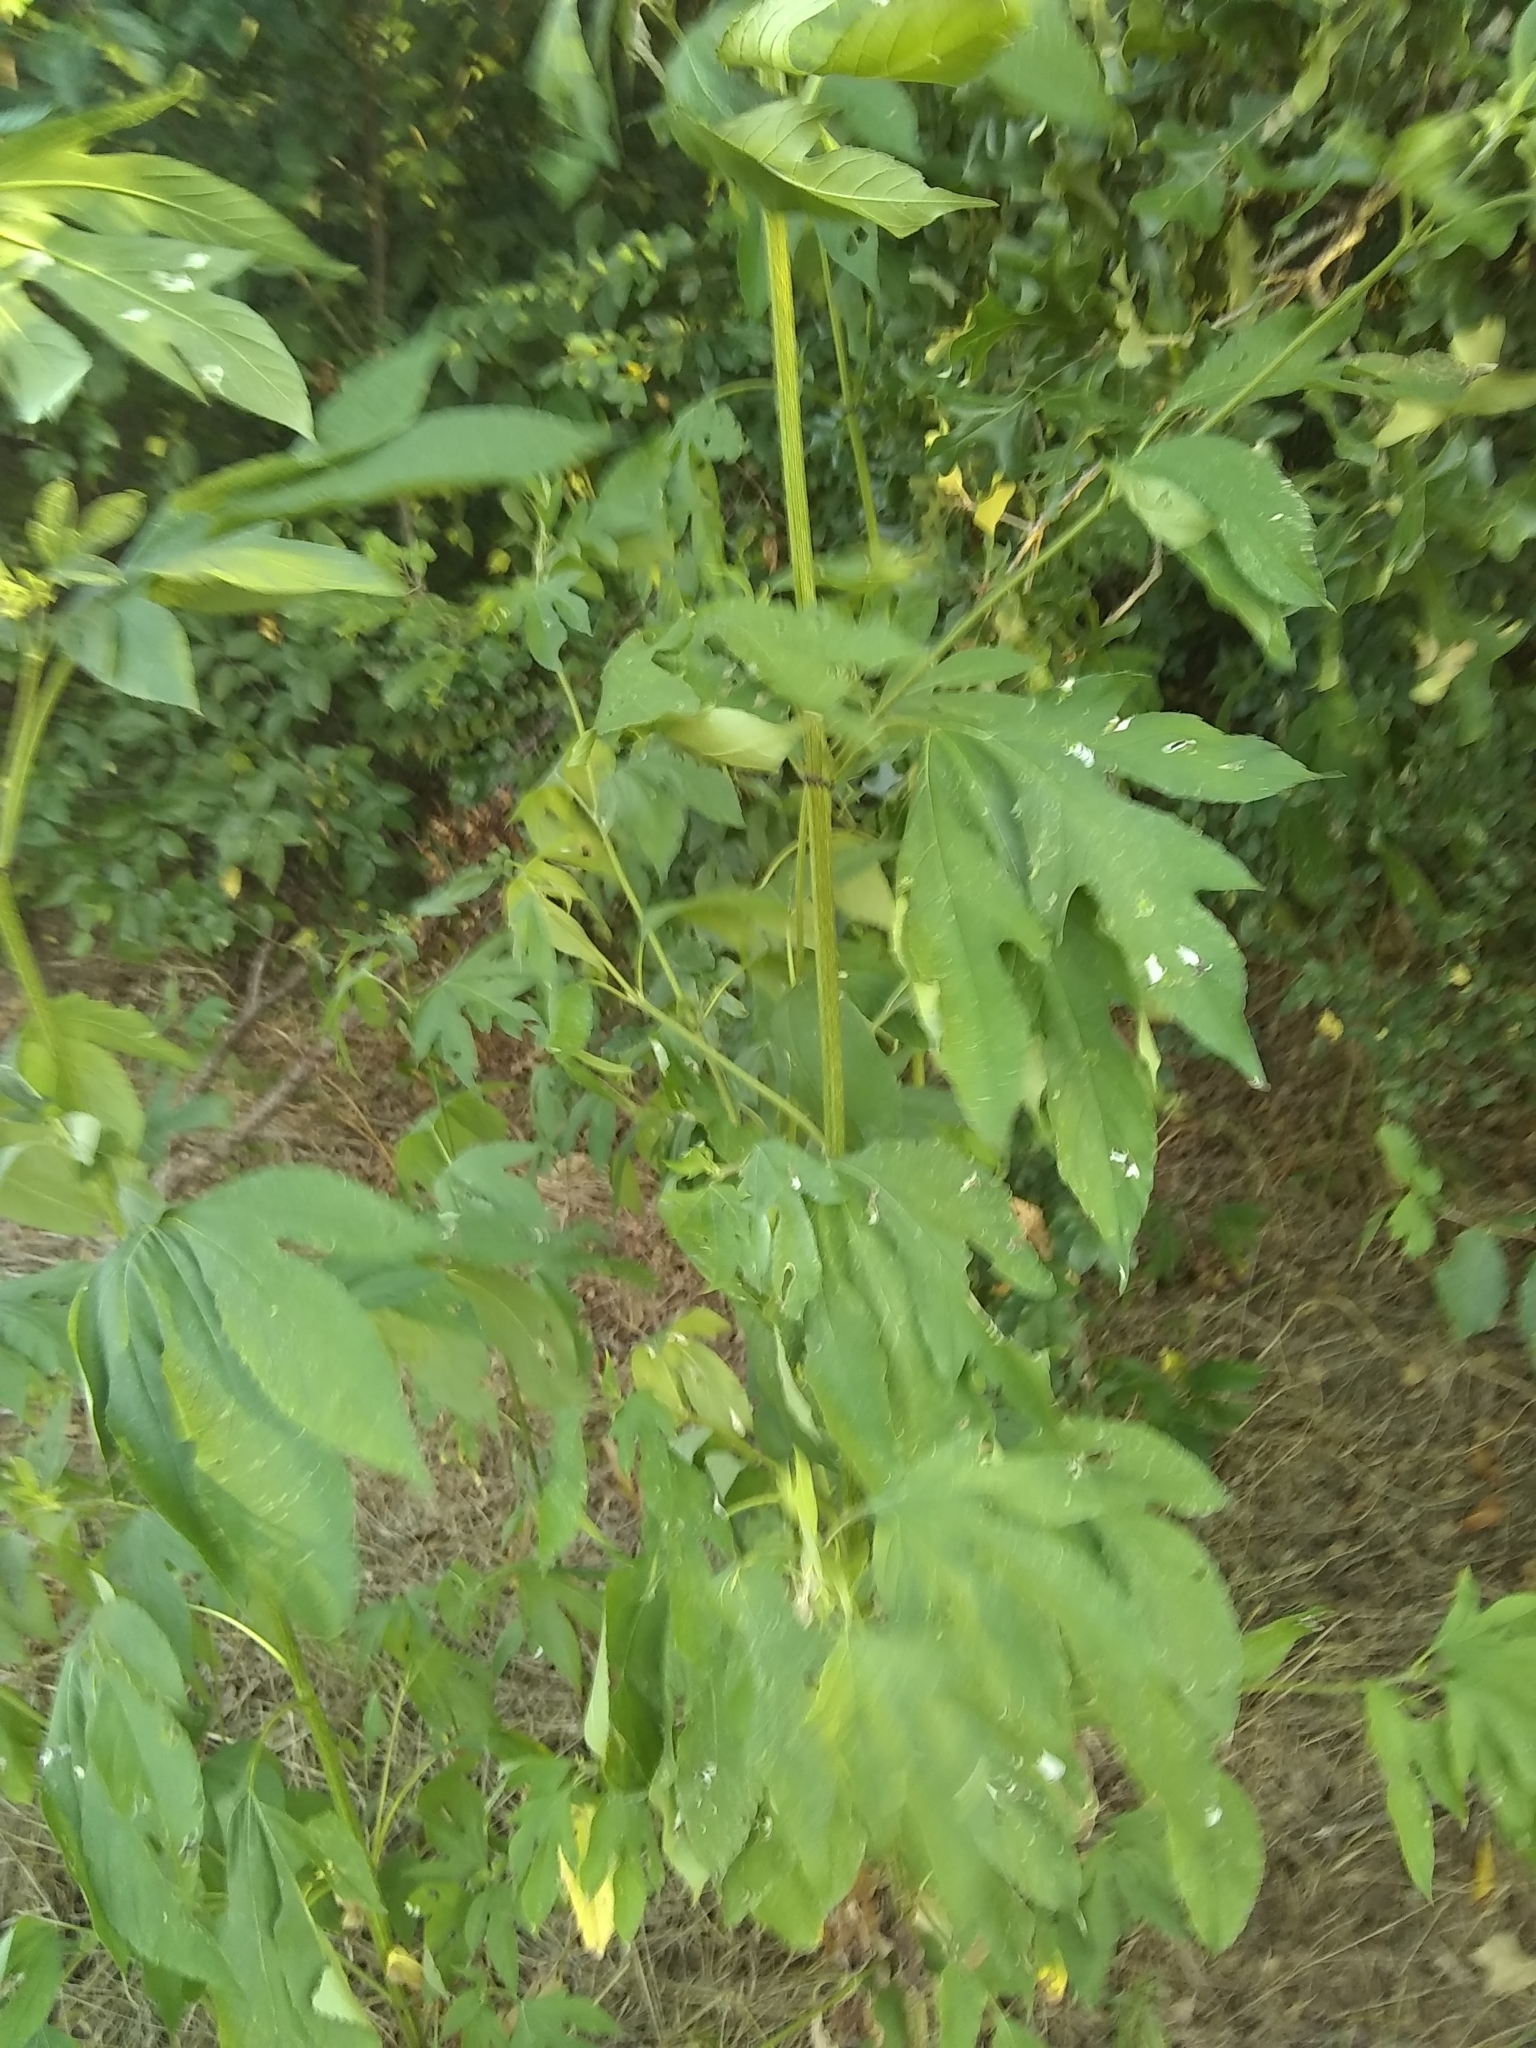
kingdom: Plantae
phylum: Tracheophyta
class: Magnoliopsida
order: Asterales
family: Asteraceae
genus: Ambrosia
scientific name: Ambrosia trifida
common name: Giant ragweed
